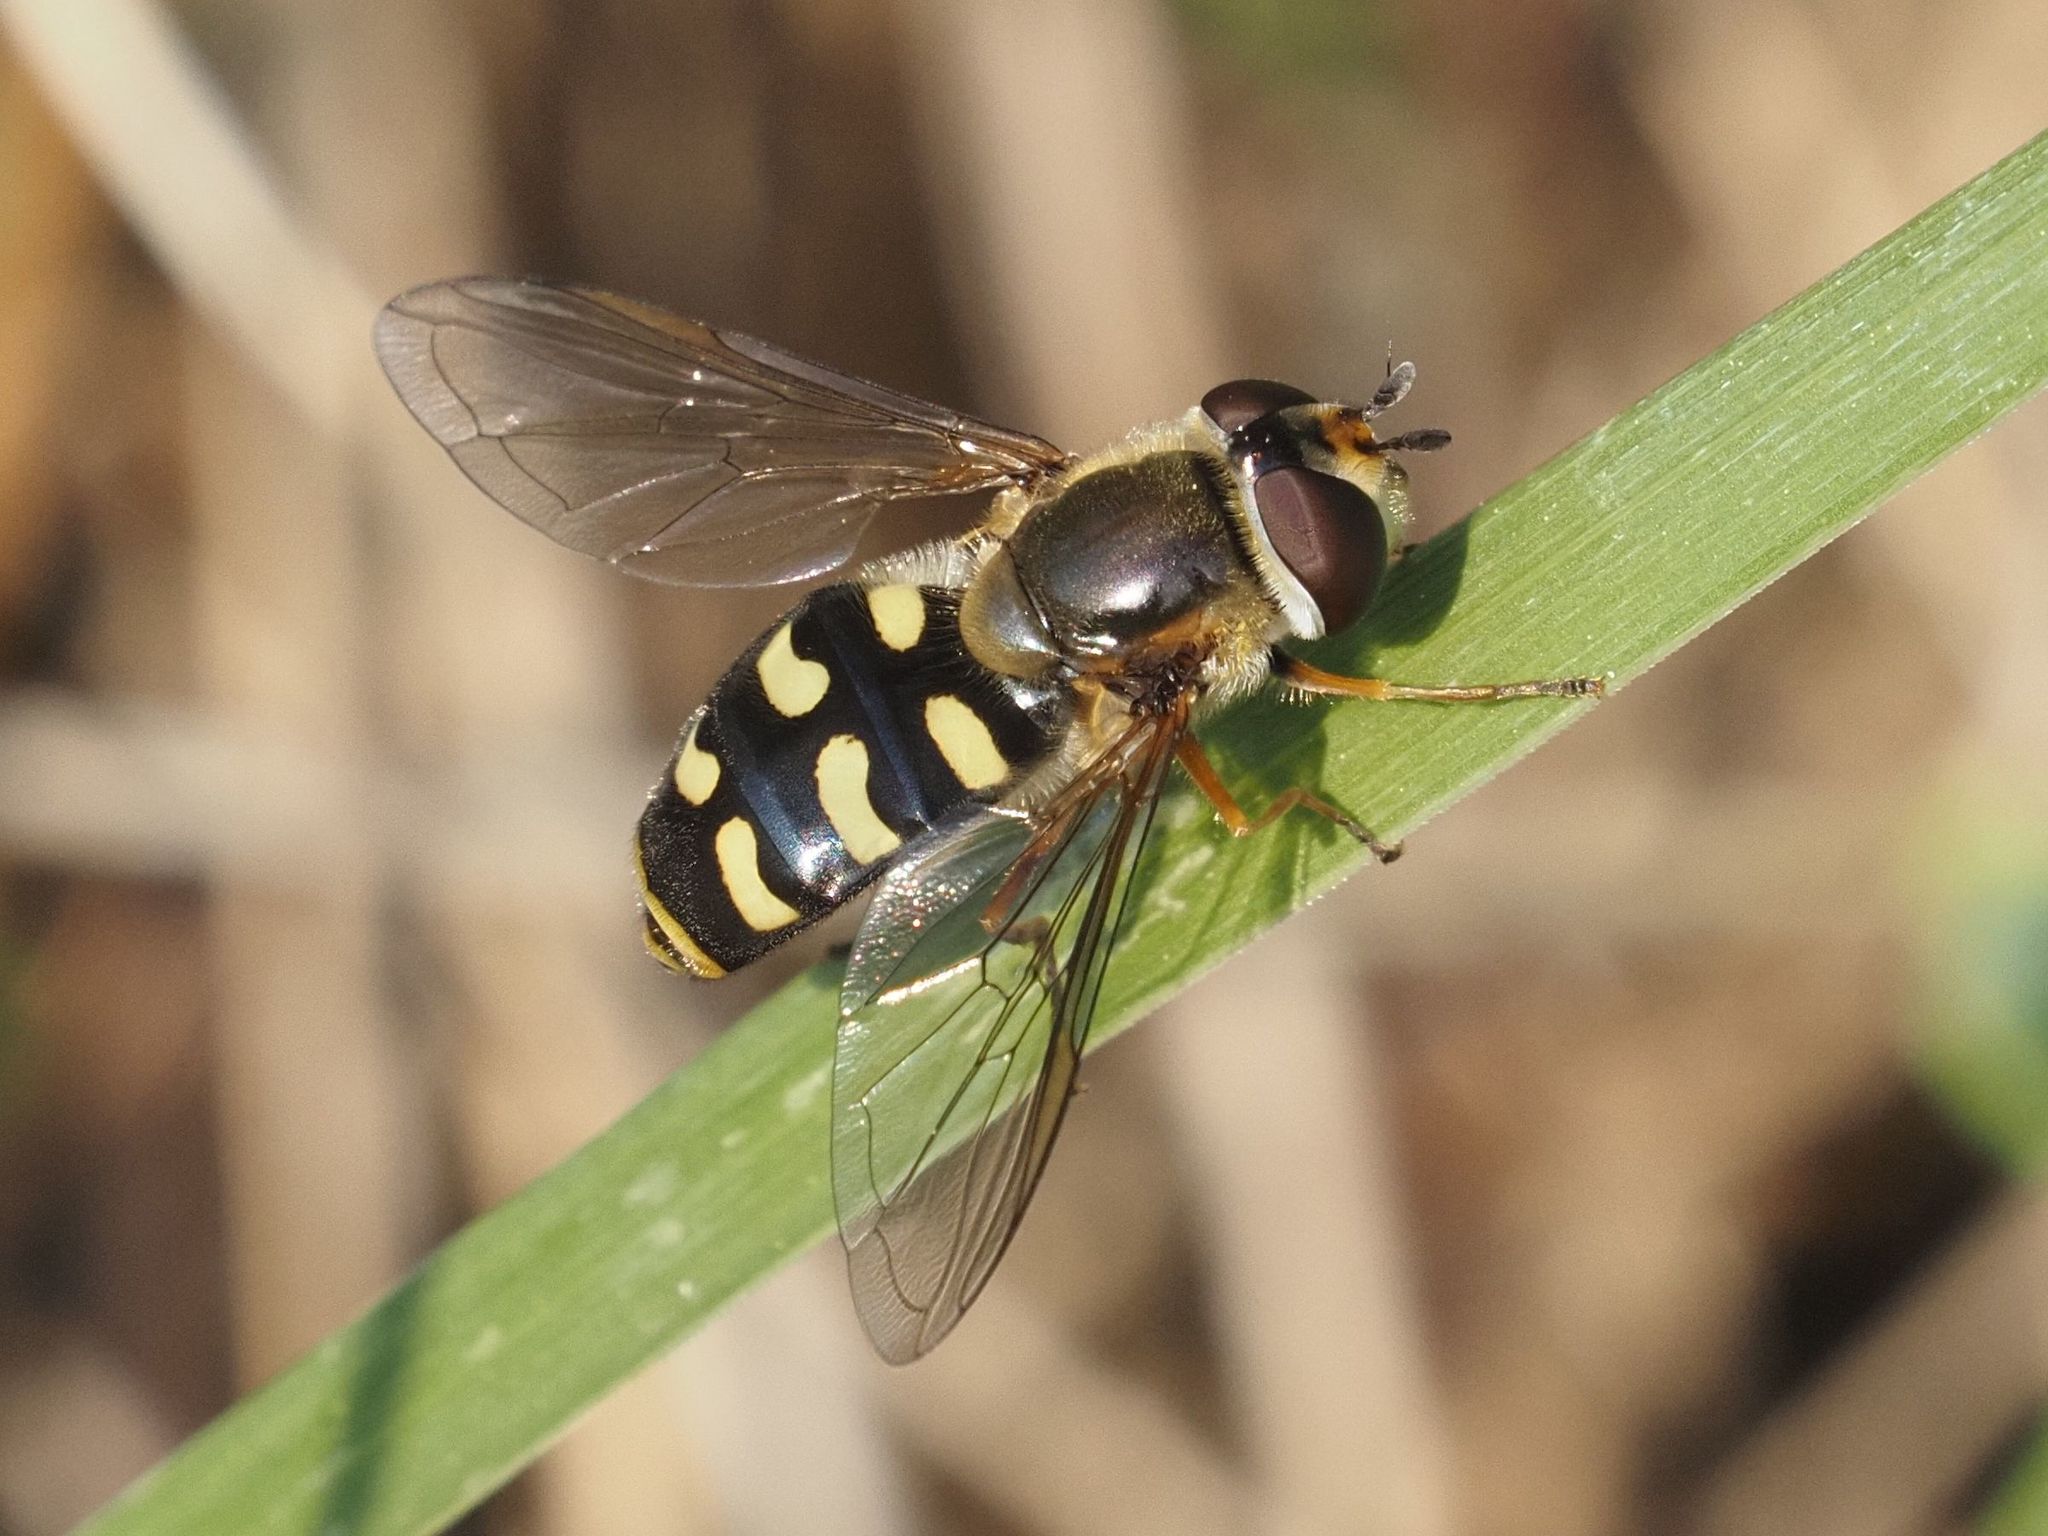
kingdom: Animalia
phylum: Arthropoda
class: Insecta
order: Diptera
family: Syrphidae
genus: Eupeodes
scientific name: Eupeodes luniger
